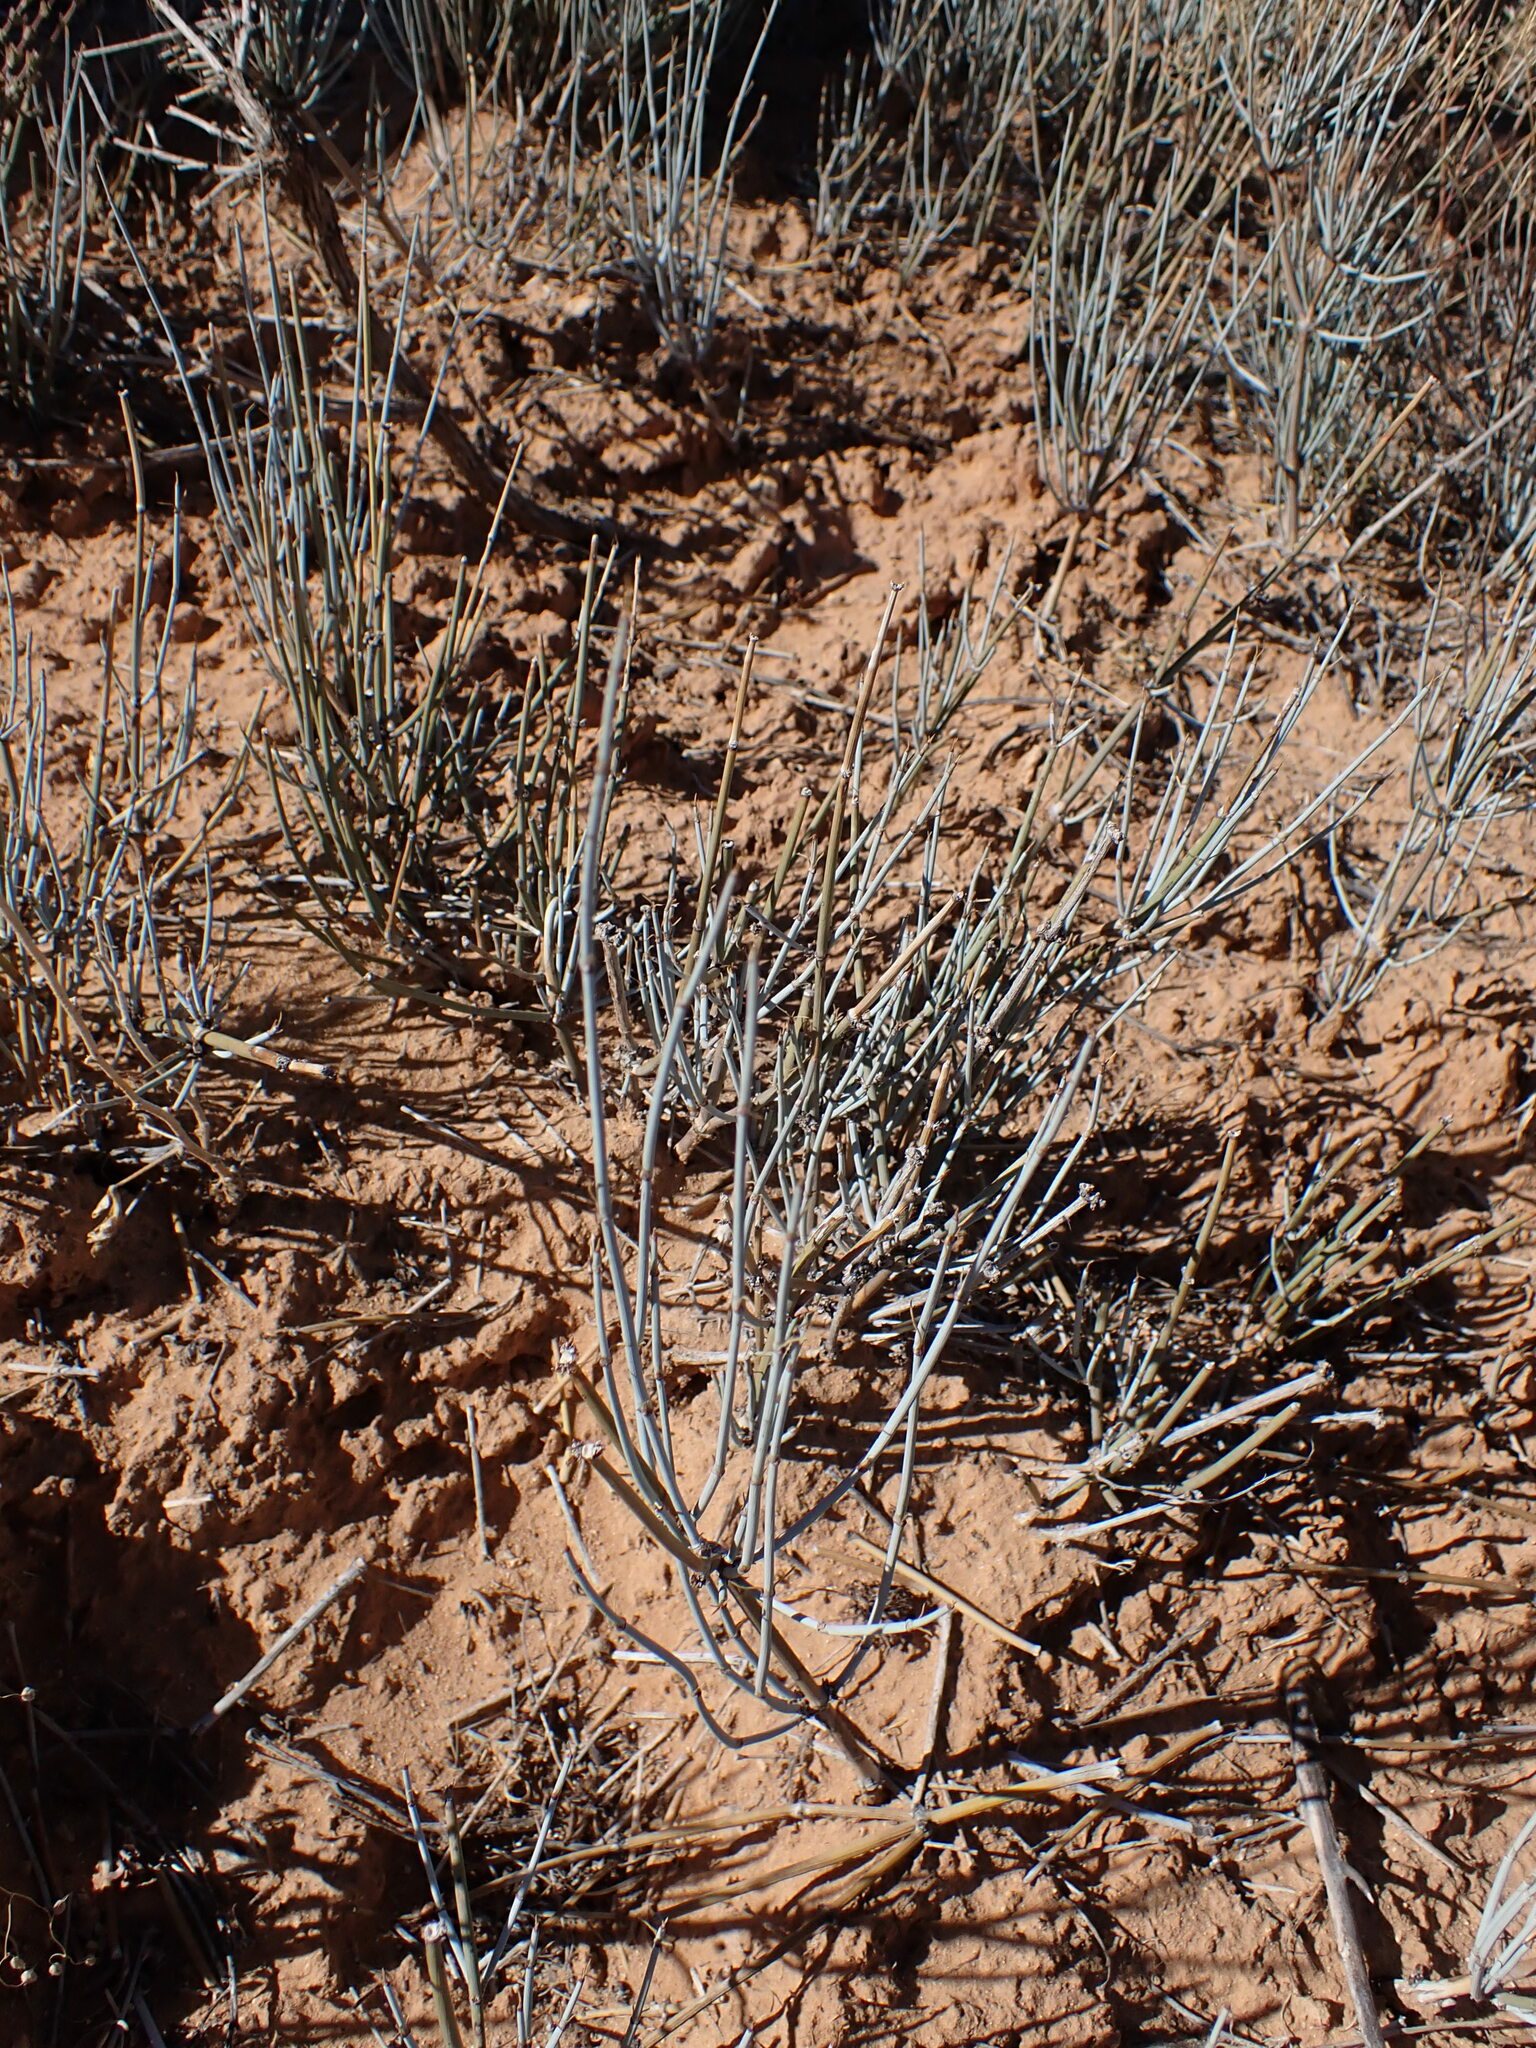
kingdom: Plantae
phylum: Tracheophyta
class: Gnetopsida
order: Ephedrales
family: Ephedraceae
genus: Ephedra
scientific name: Ephedra nevadensis
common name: Gray ephedra
